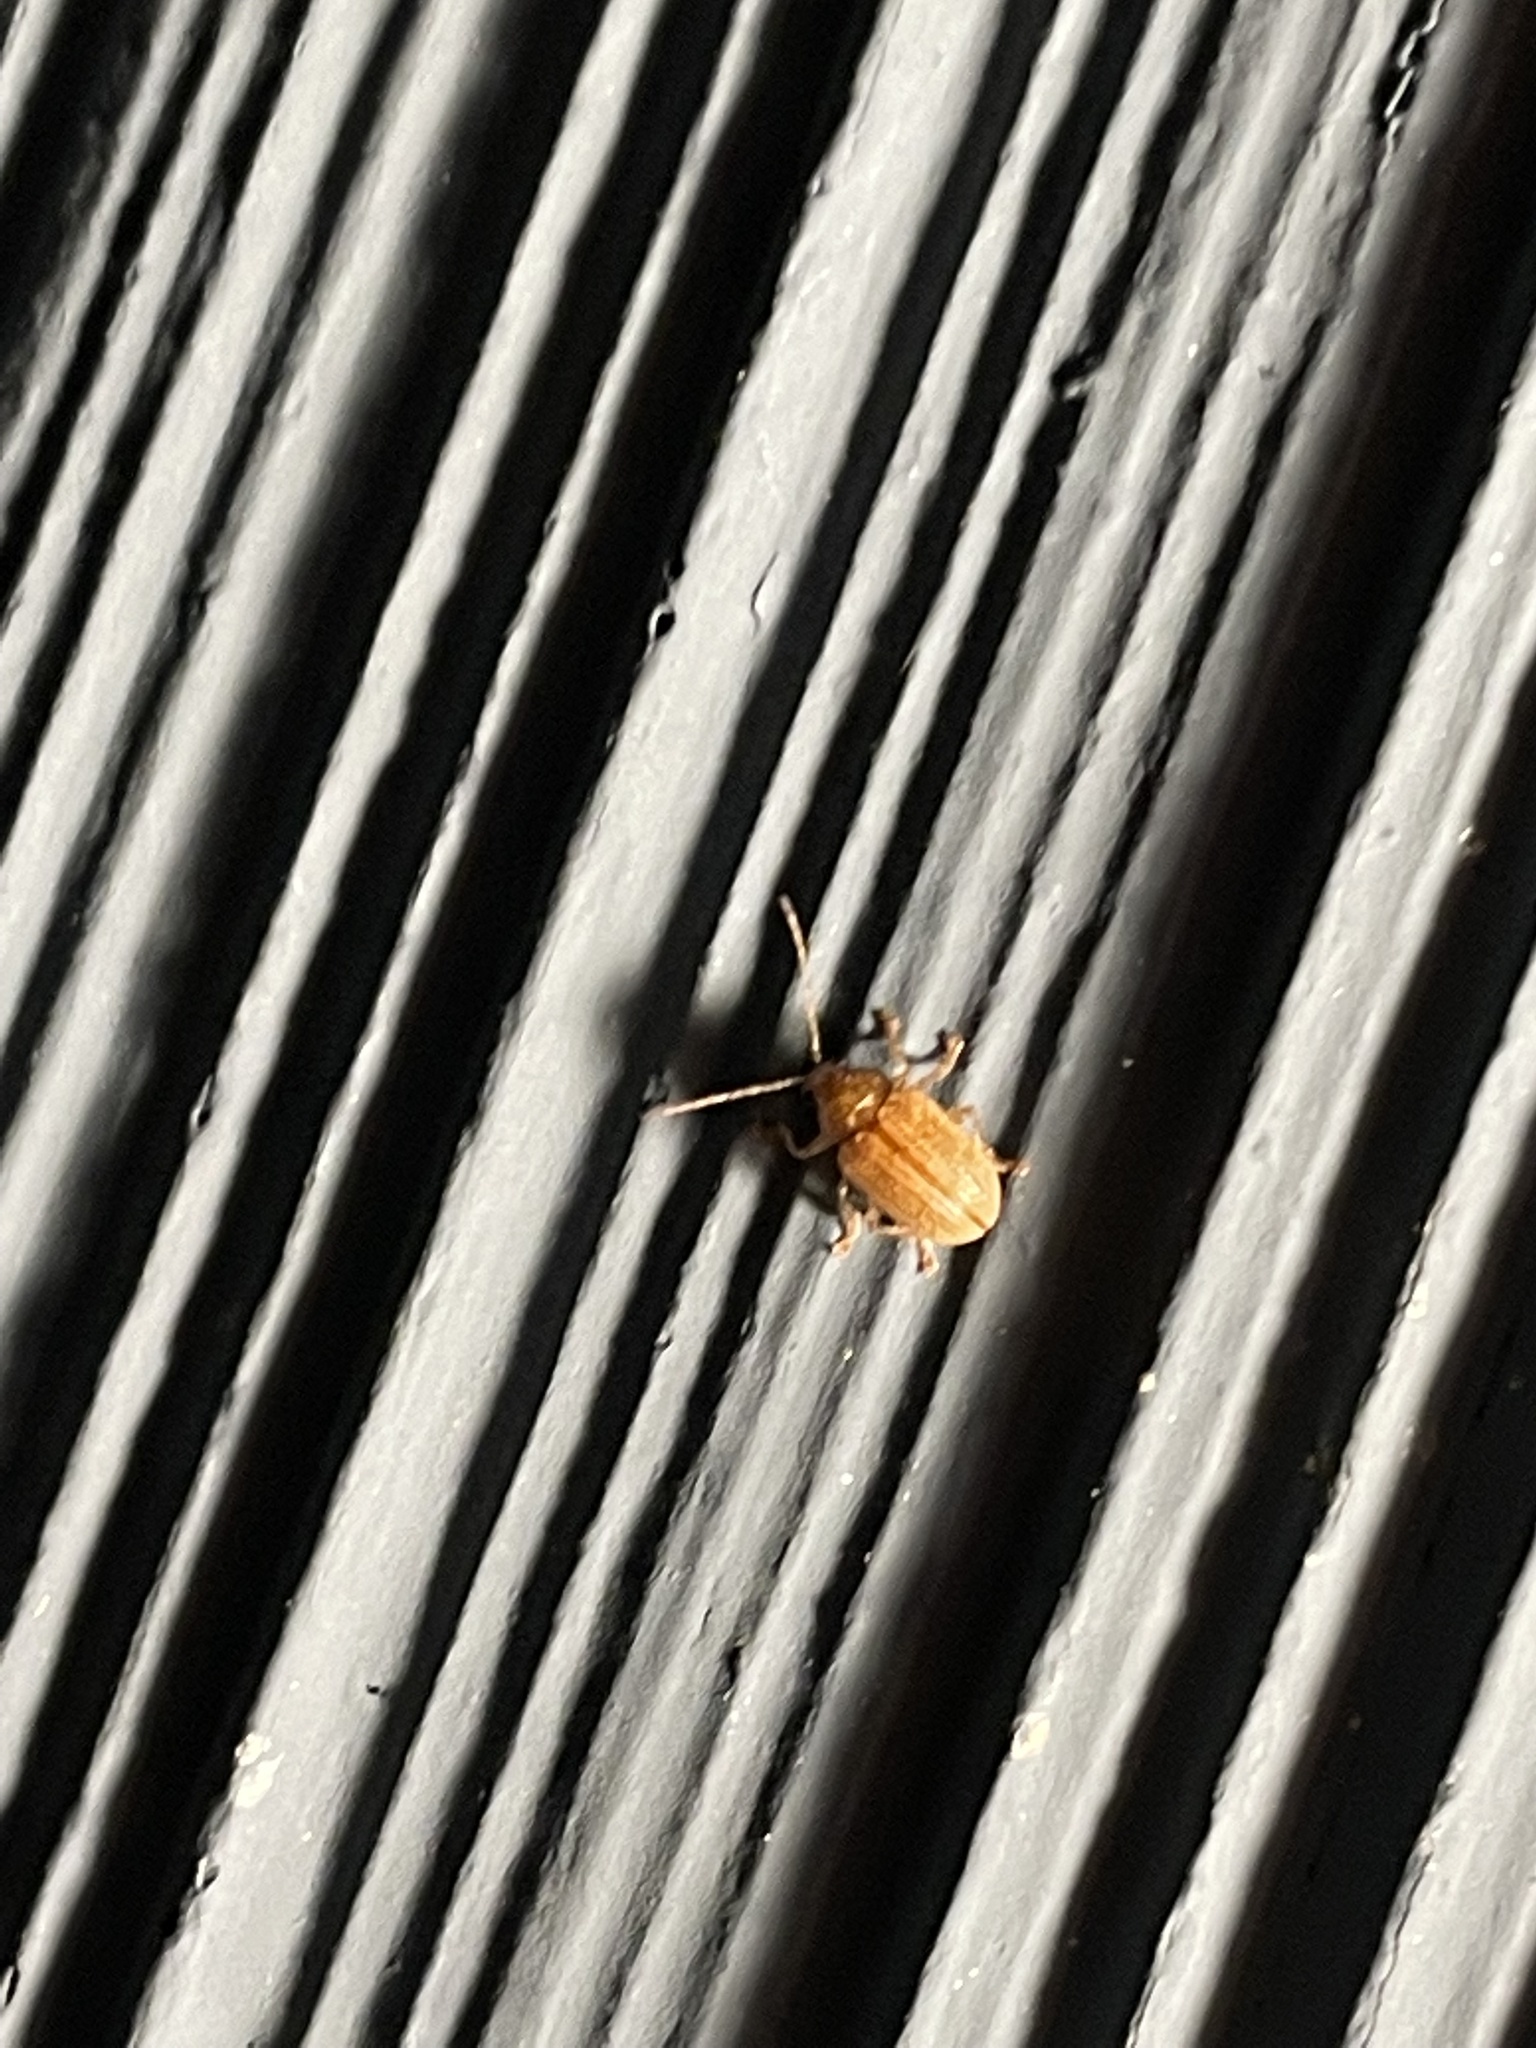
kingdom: Animalia
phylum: Arthropoda
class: Insecta
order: Coleoptera
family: Chrysomelidae
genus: Colaspis
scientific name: Colaspis brunnea
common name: Grape colaspis
